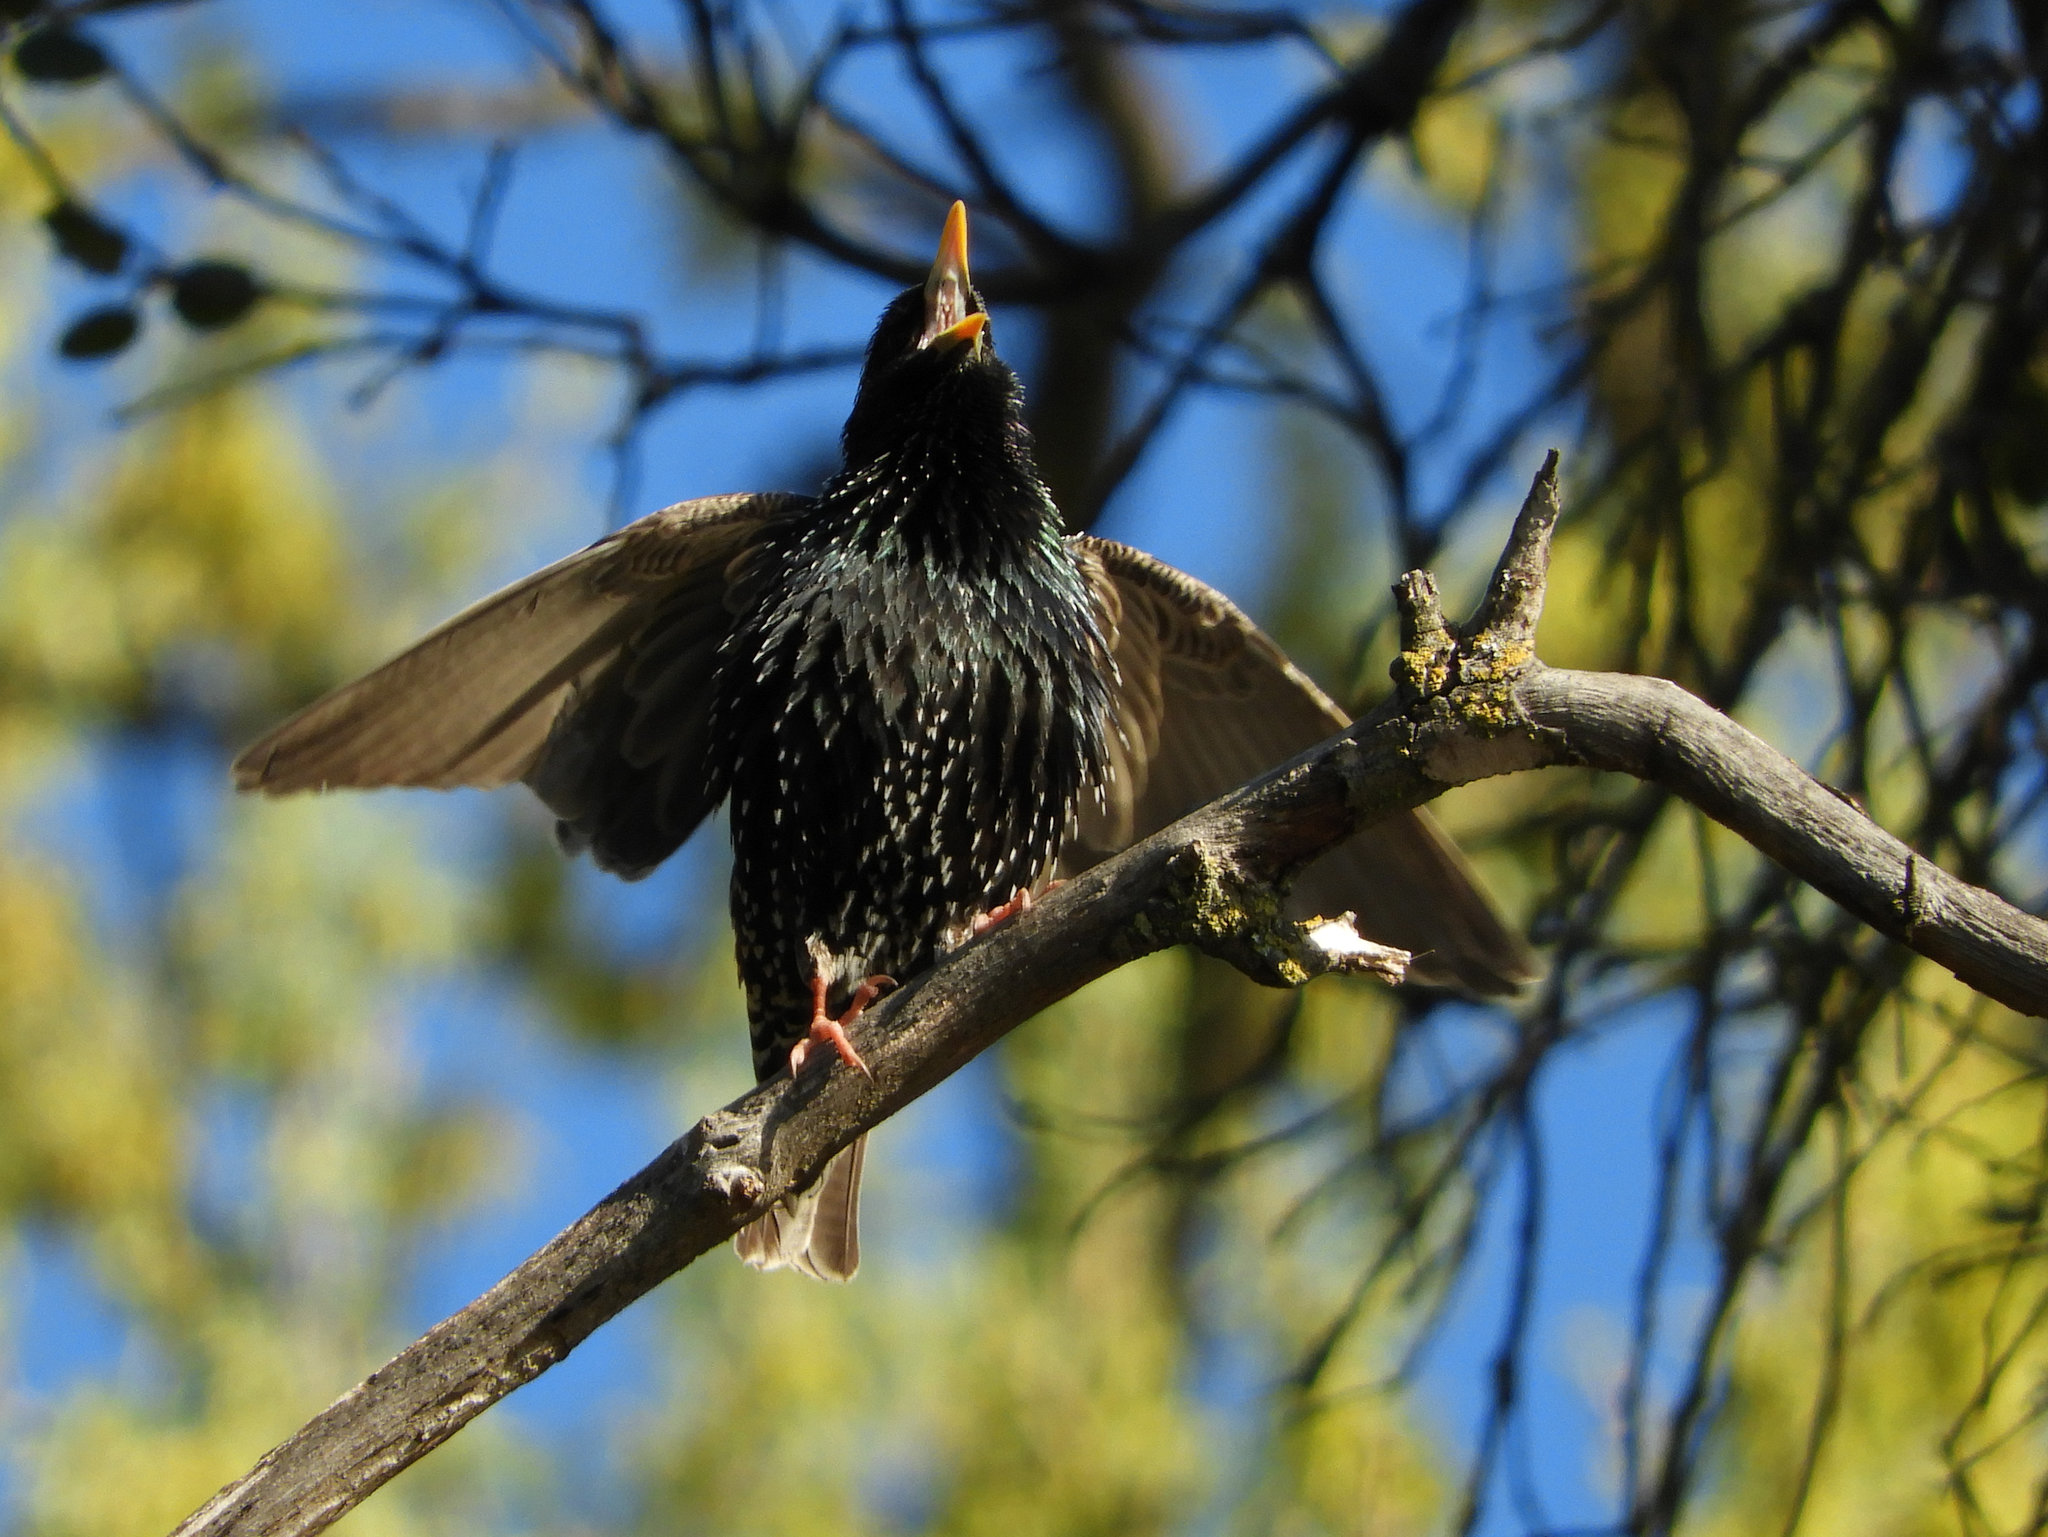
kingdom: Animalia
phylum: Chordata
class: Aves
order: Passeriformes
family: Sturnidae
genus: Sturnus
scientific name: Sturnus vulgaris
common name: Common starling
